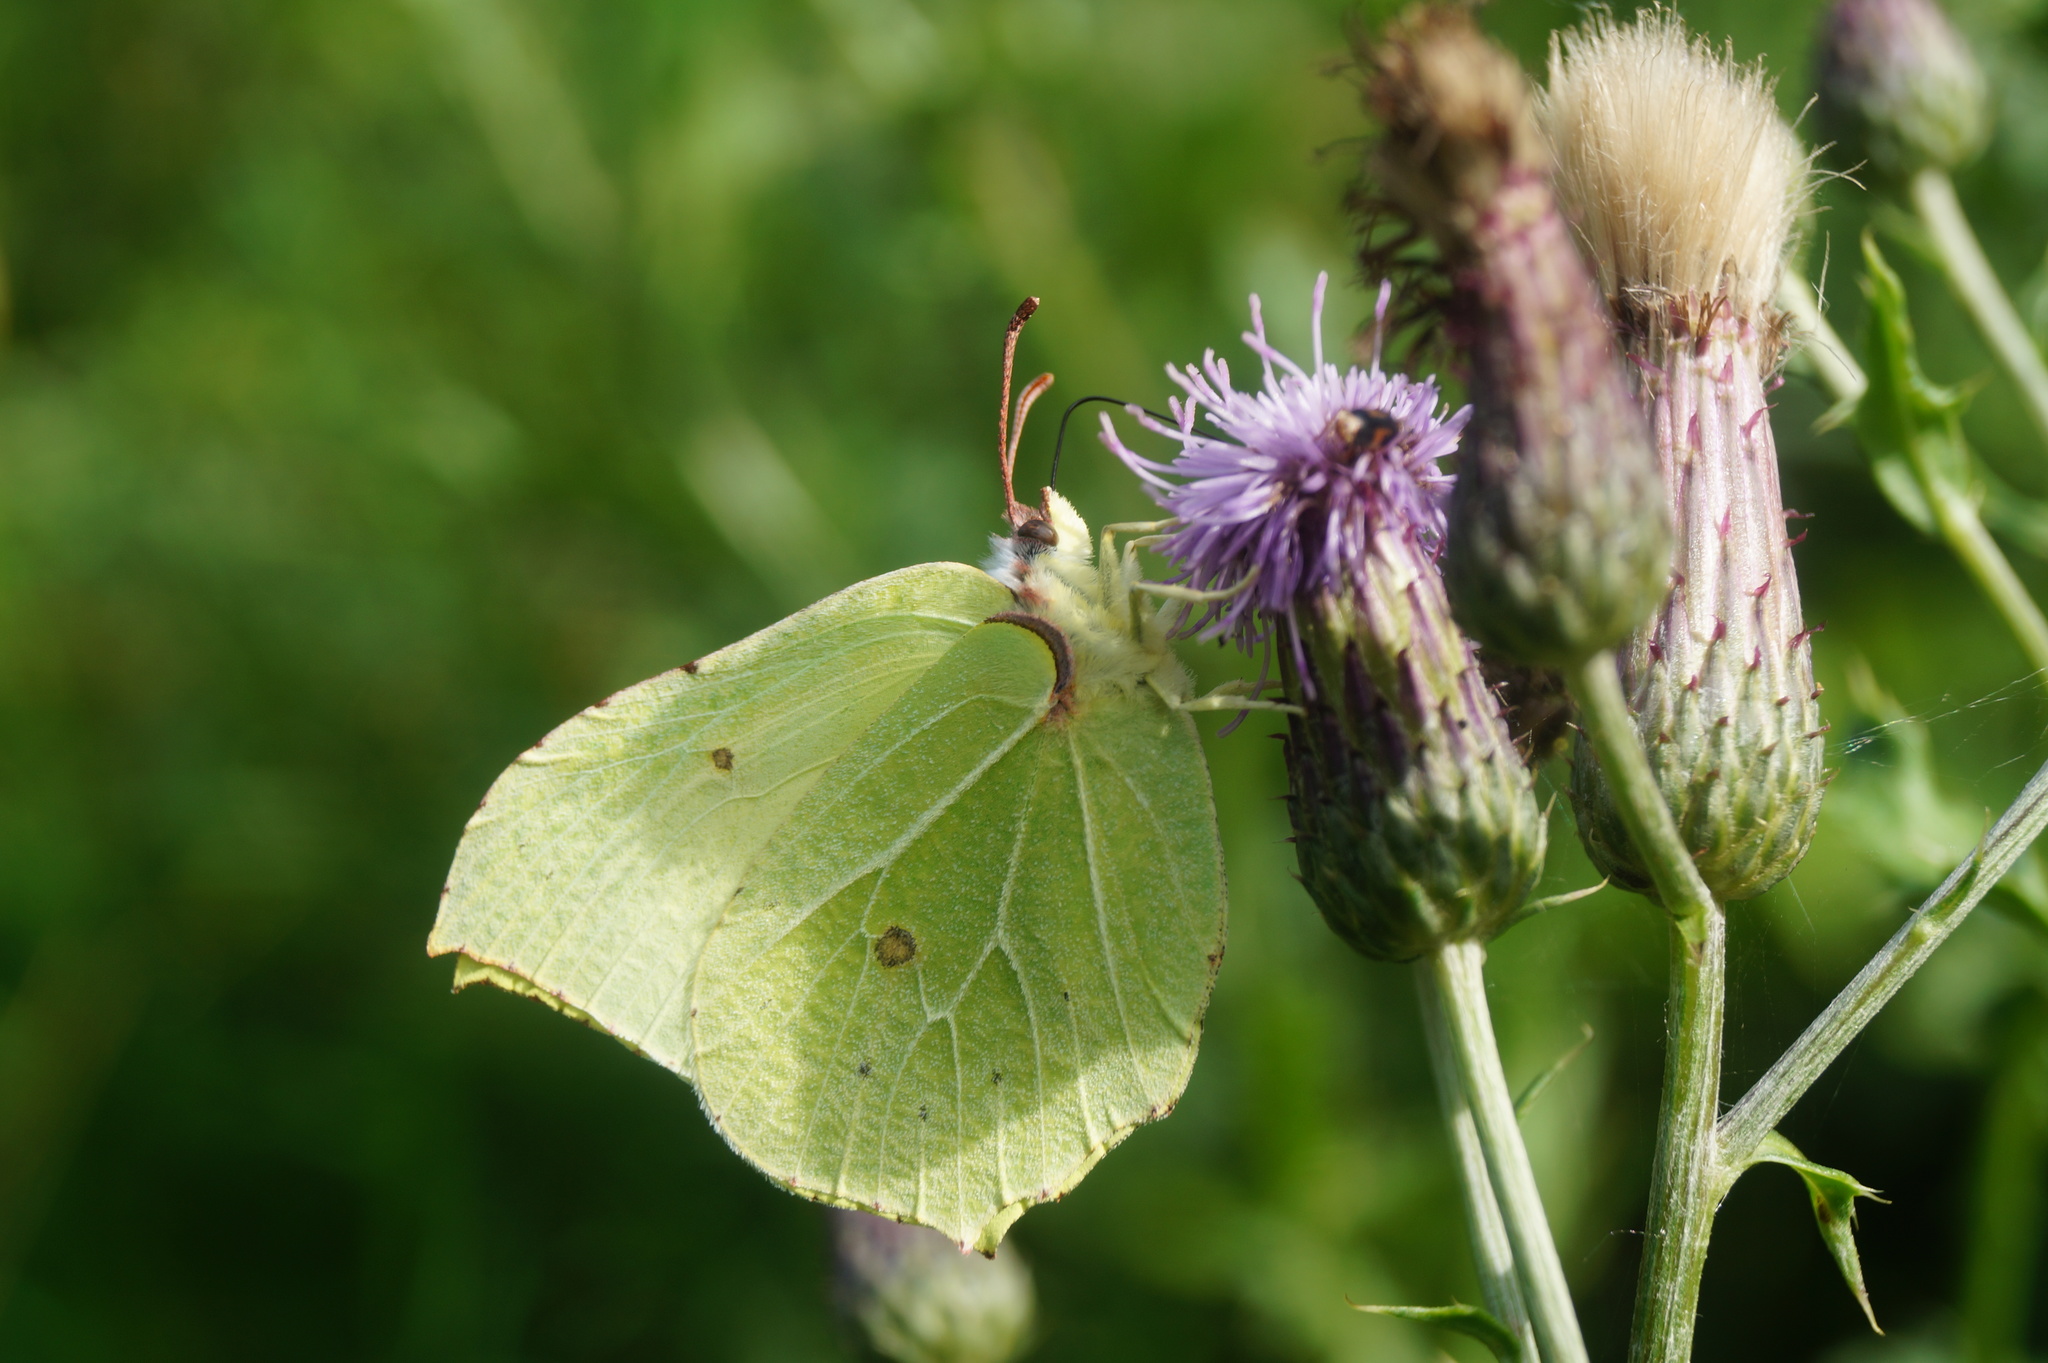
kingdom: Animalia
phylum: Arthropoda
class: Insecta
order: Lepidoptera
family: Pieridae
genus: Gonepteryx
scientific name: Gonepteryx rhamni
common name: Brimstone
